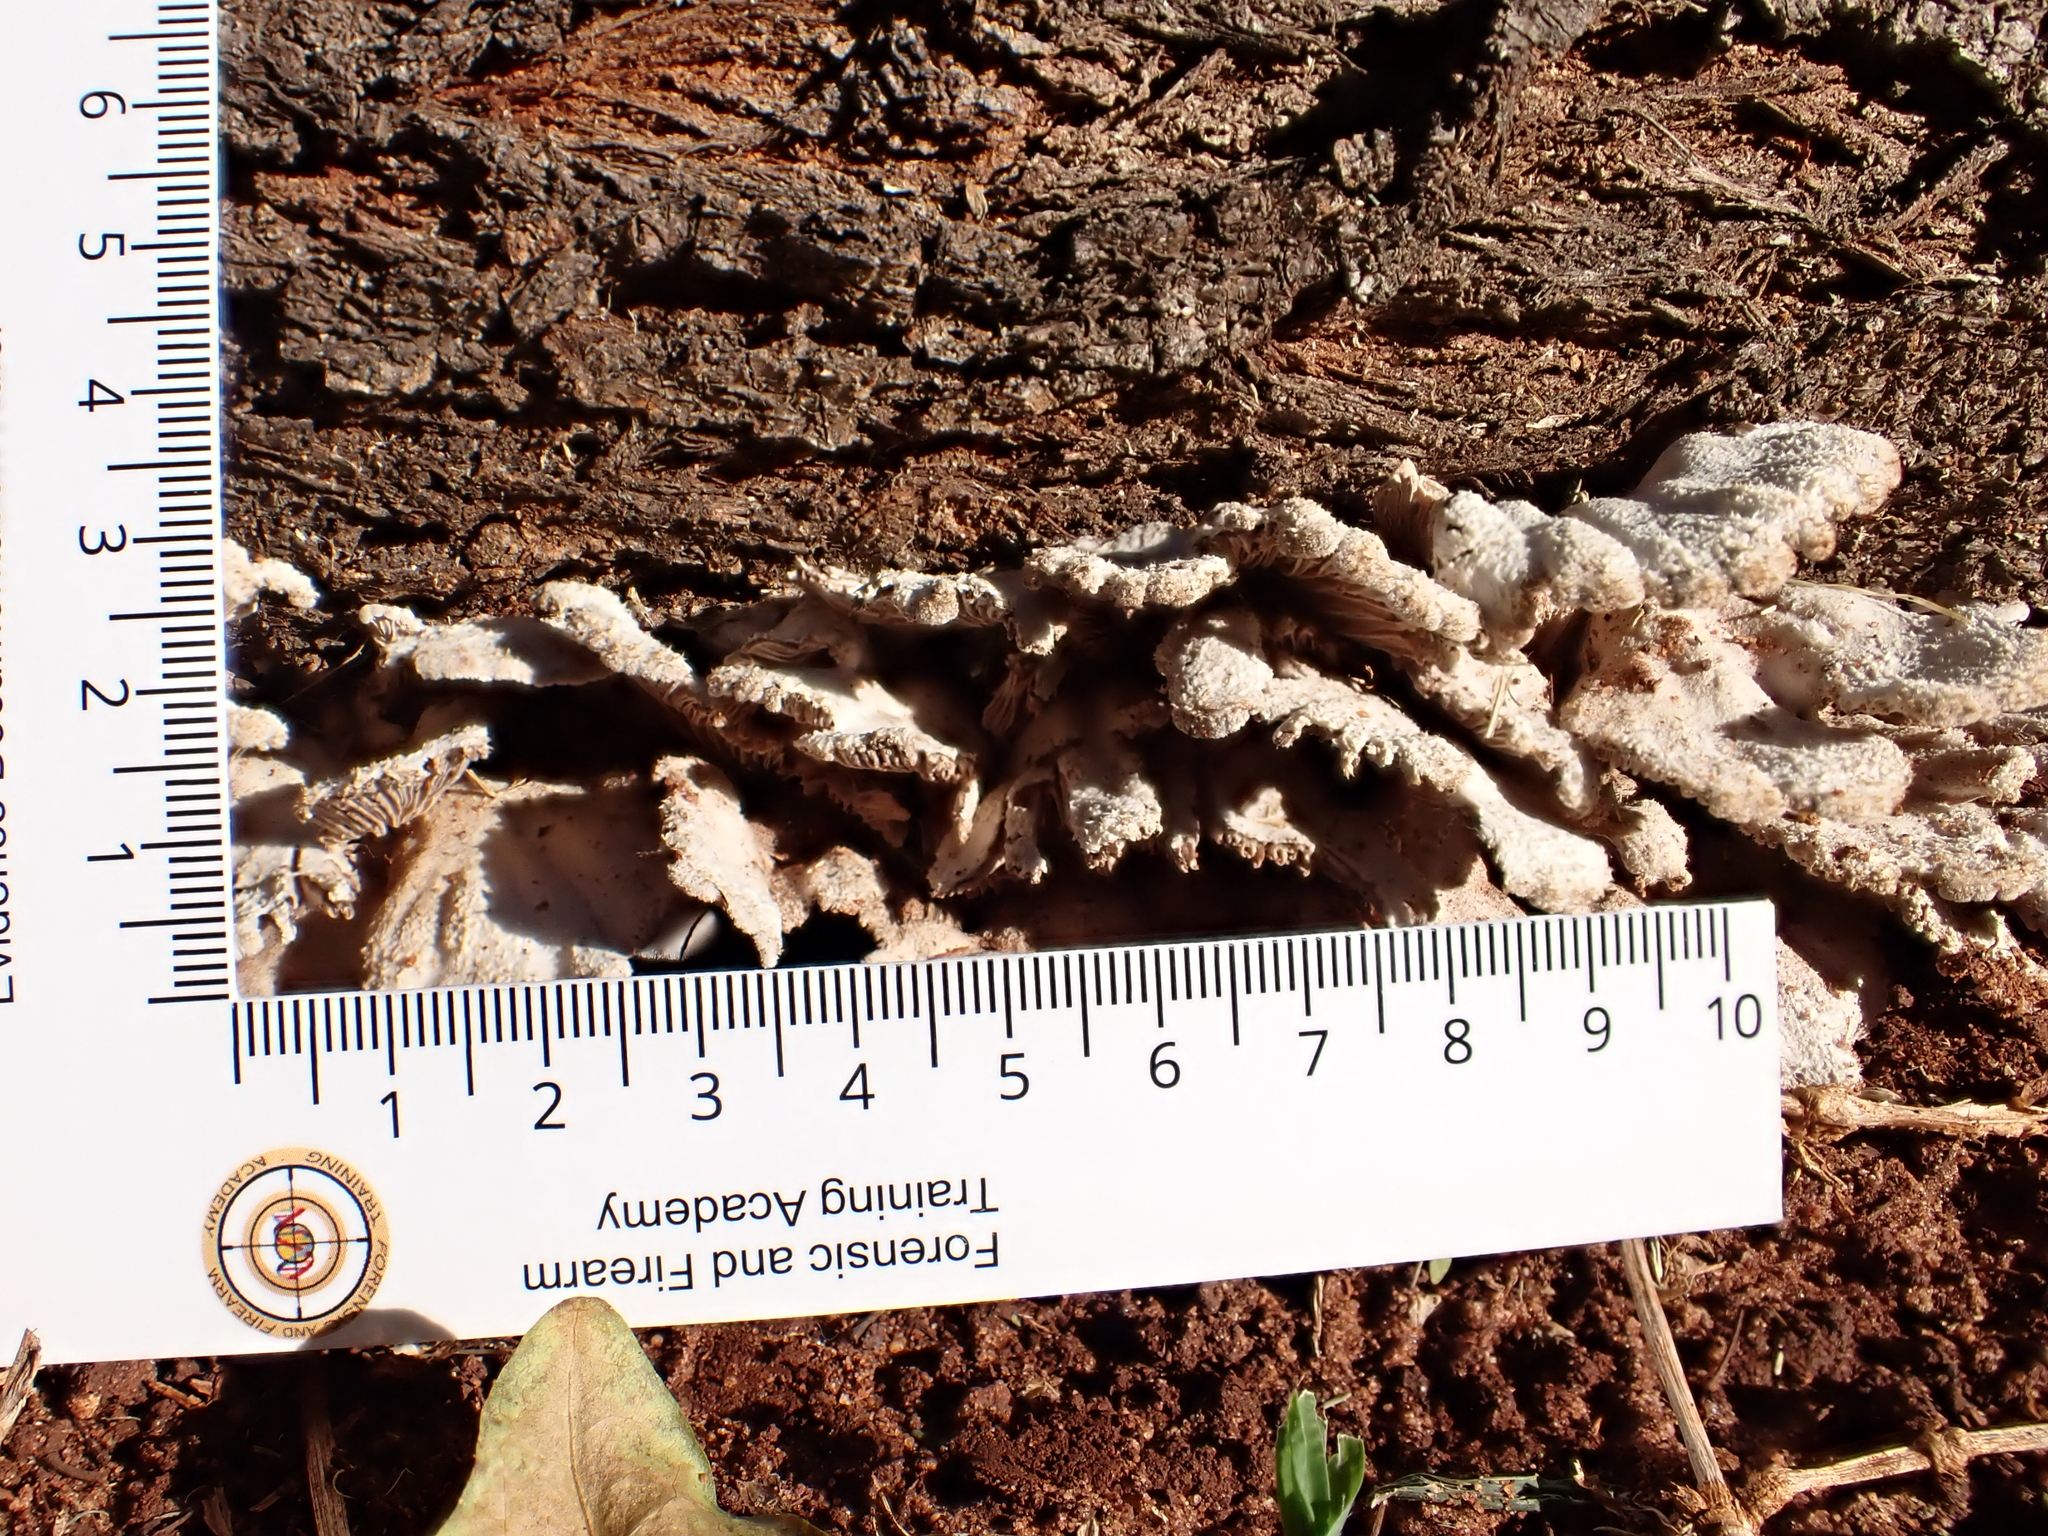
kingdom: Fungi
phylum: Basidiomycota
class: Agaricomycetes
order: Agaricales
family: Schizophyllaceae
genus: Schizophyllum
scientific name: Schizophyllum commune
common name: Common porecrust
